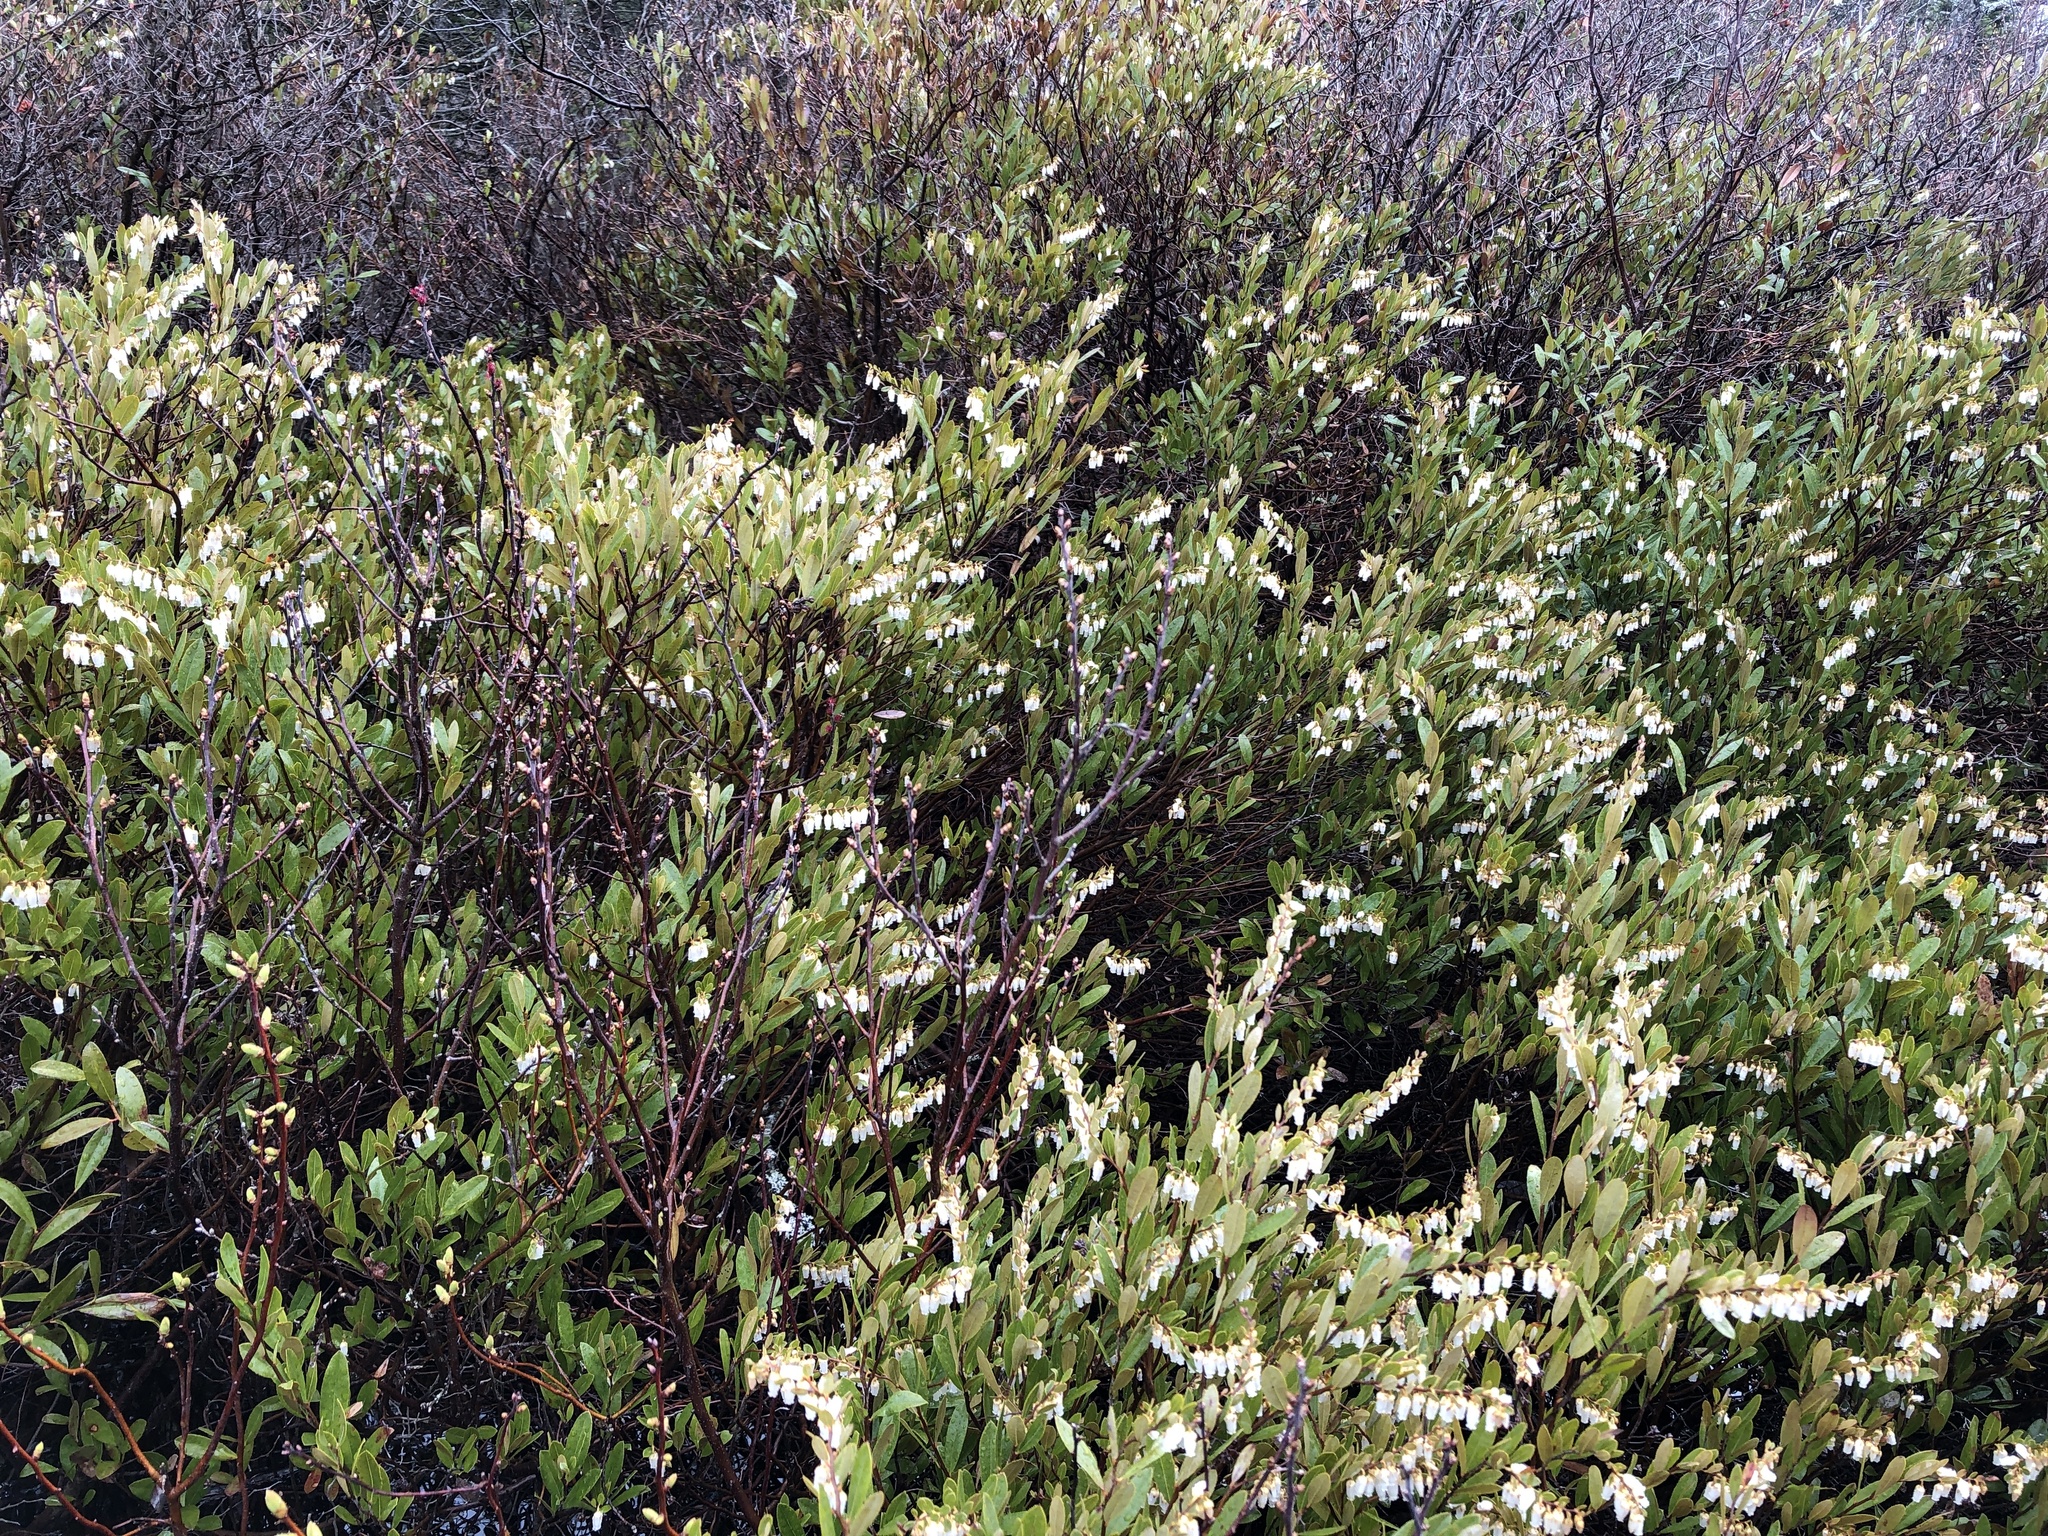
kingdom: Plantae
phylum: Tracheophyta
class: Magnoliopsida
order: Ericales
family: Ericaceae
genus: Chamaedaphne
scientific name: Chamaedaphne calyculata
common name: Leatherleaf
